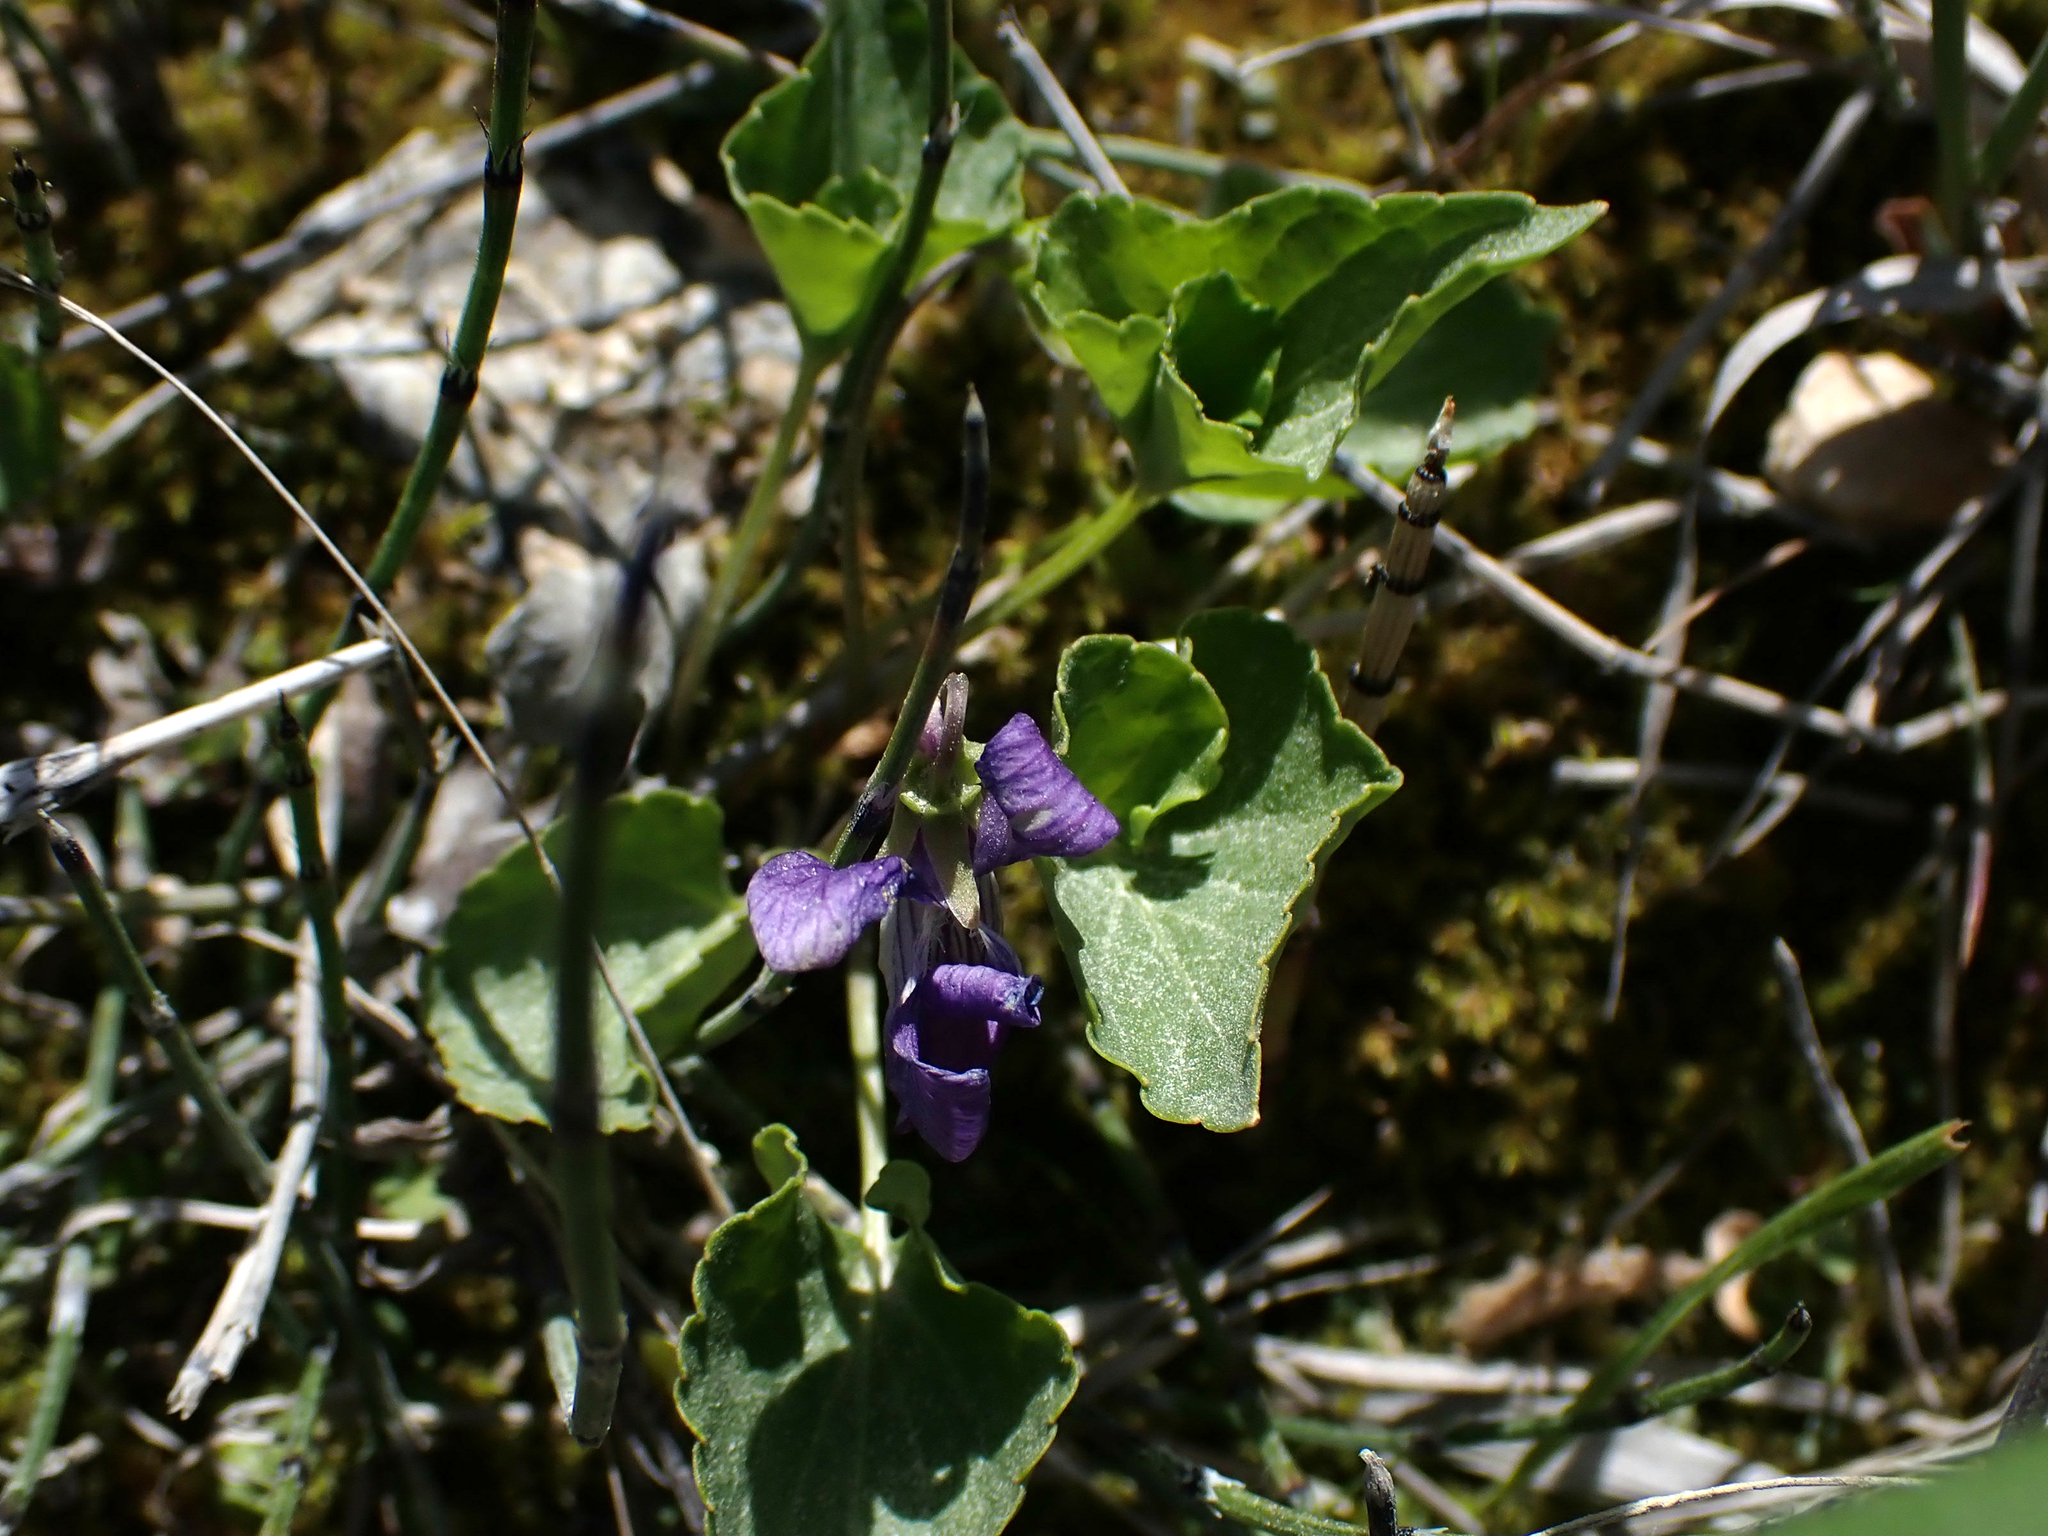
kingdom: Plantae
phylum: Tracheophyta
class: Magnoliopsida
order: Malpighiales
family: Violaceae
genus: Viola
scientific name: Viola adunca
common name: Sand violet
